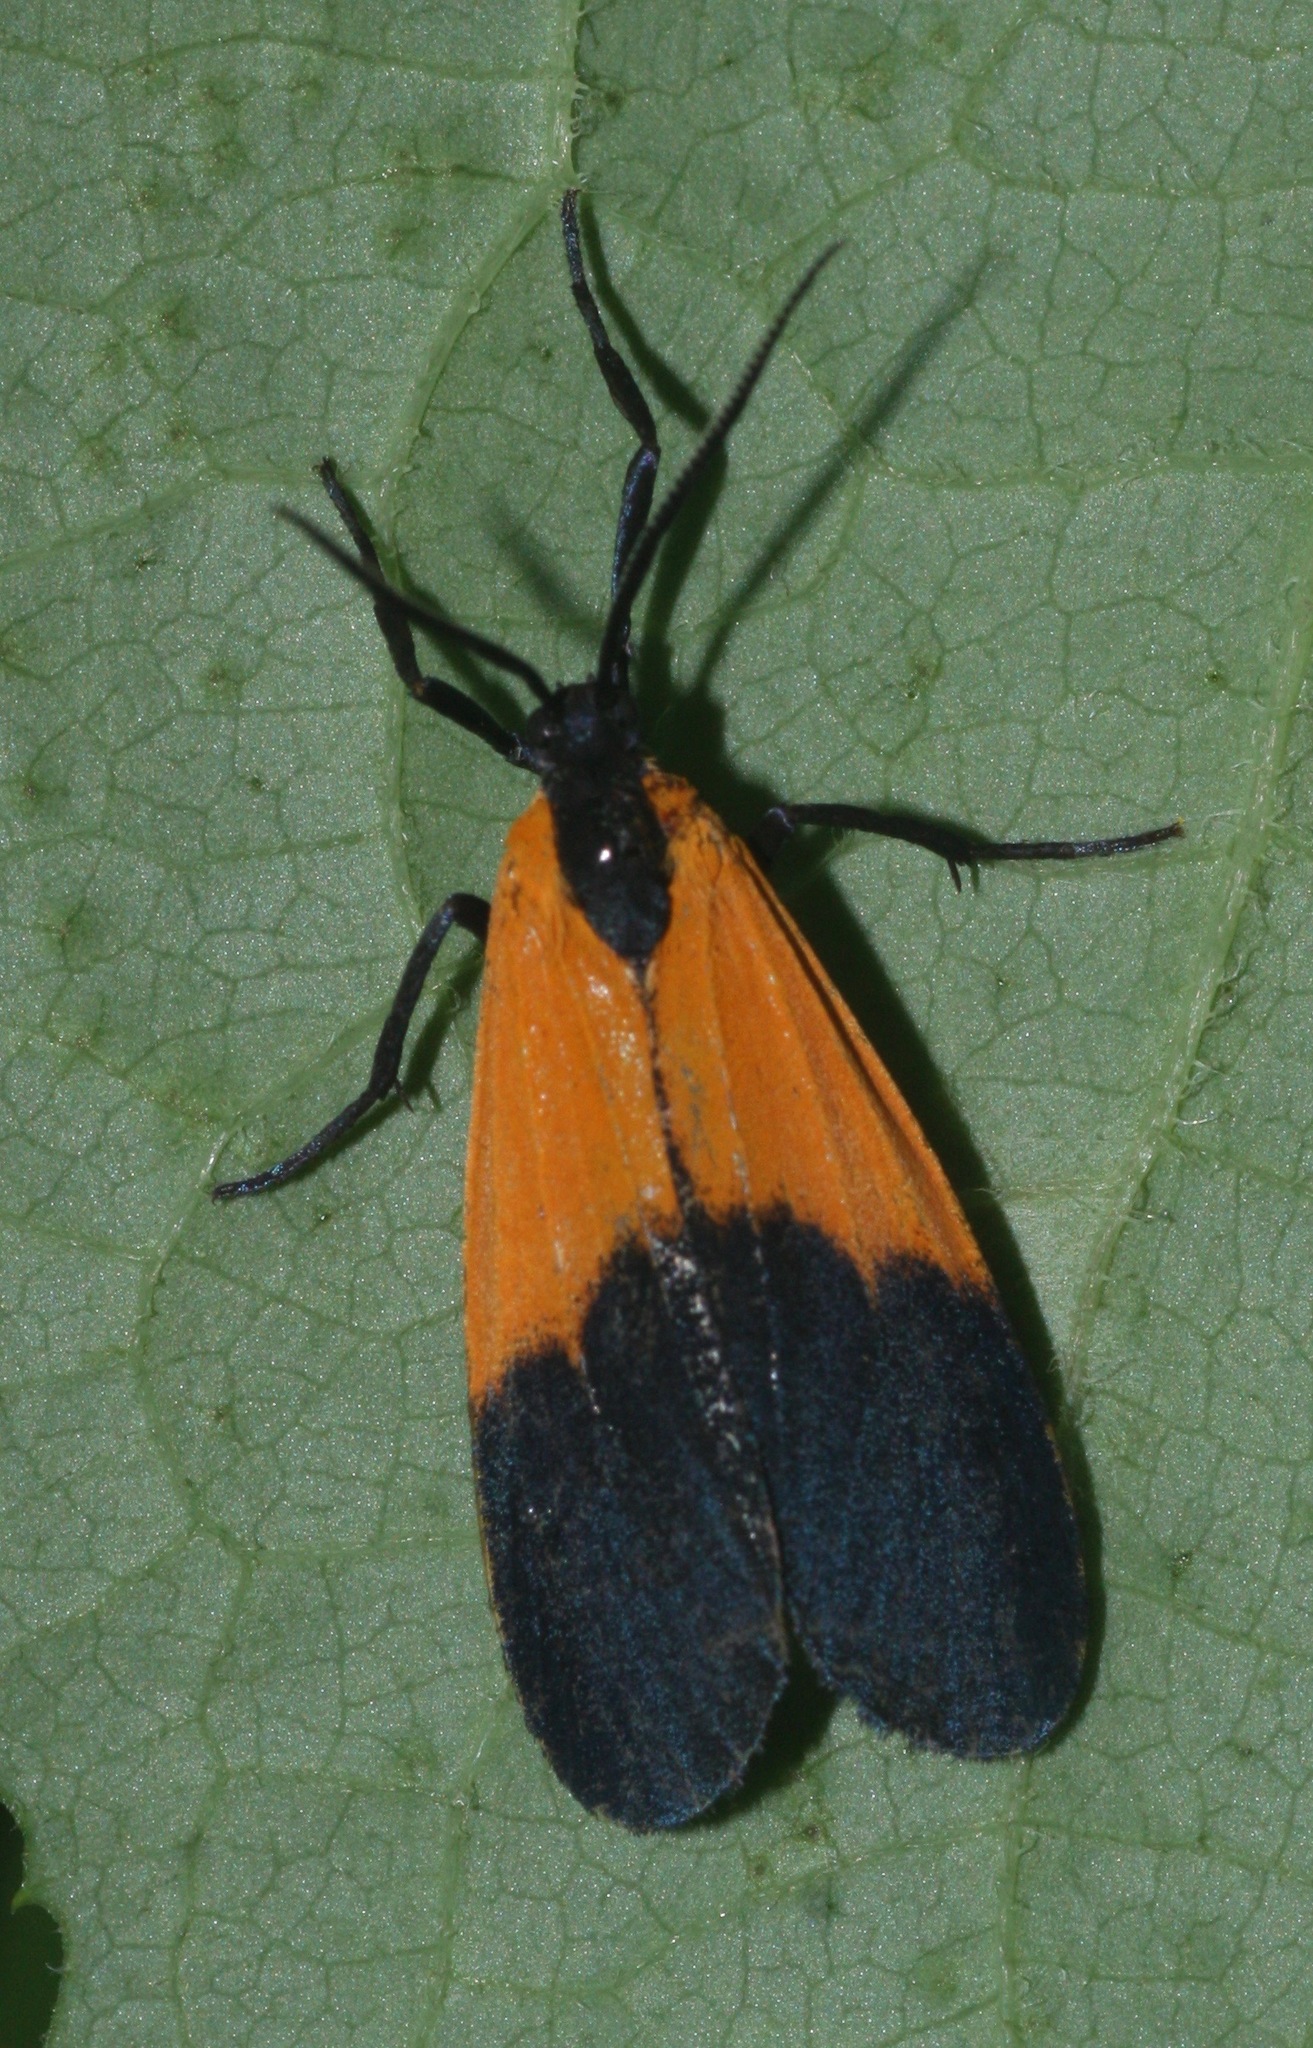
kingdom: Animalia
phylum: Arthropoda
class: Insecta
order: Lepidoptera
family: Erebidae
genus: Lycomorpha
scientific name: Lycomorpha pholus
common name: Black-and-yellow lichen moth
